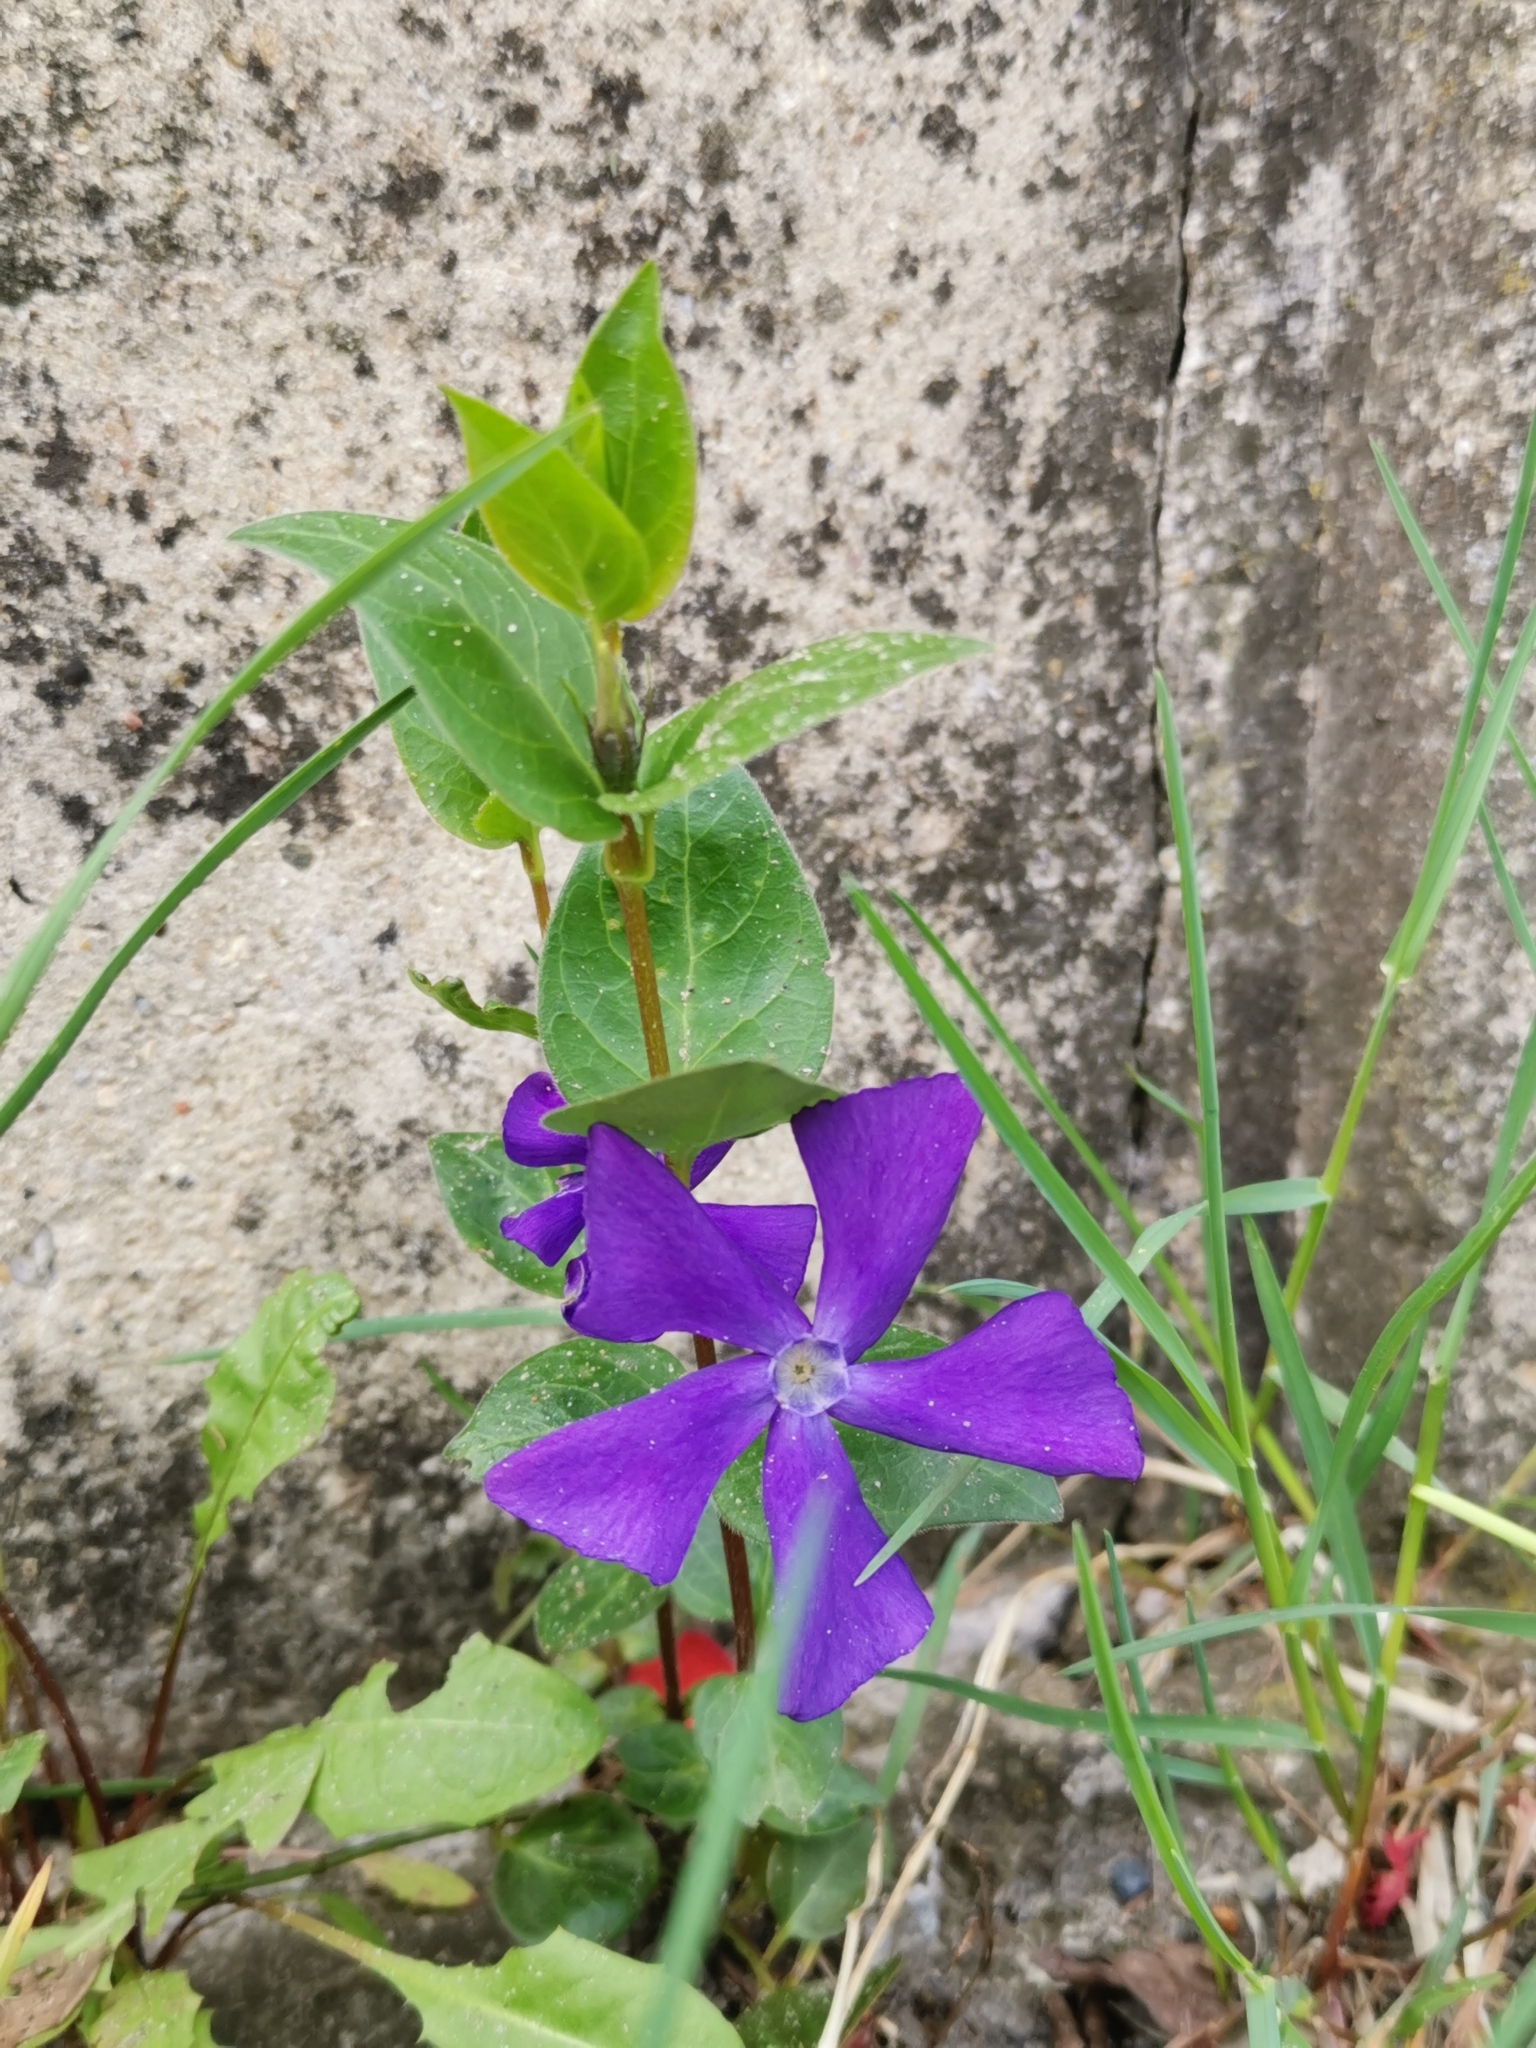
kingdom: Plantae
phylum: Tracheophyta
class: Magnoliopsida
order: Gentianales
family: Apocynaceae
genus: Vinca
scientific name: Vinca major
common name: Greater periwinkle
